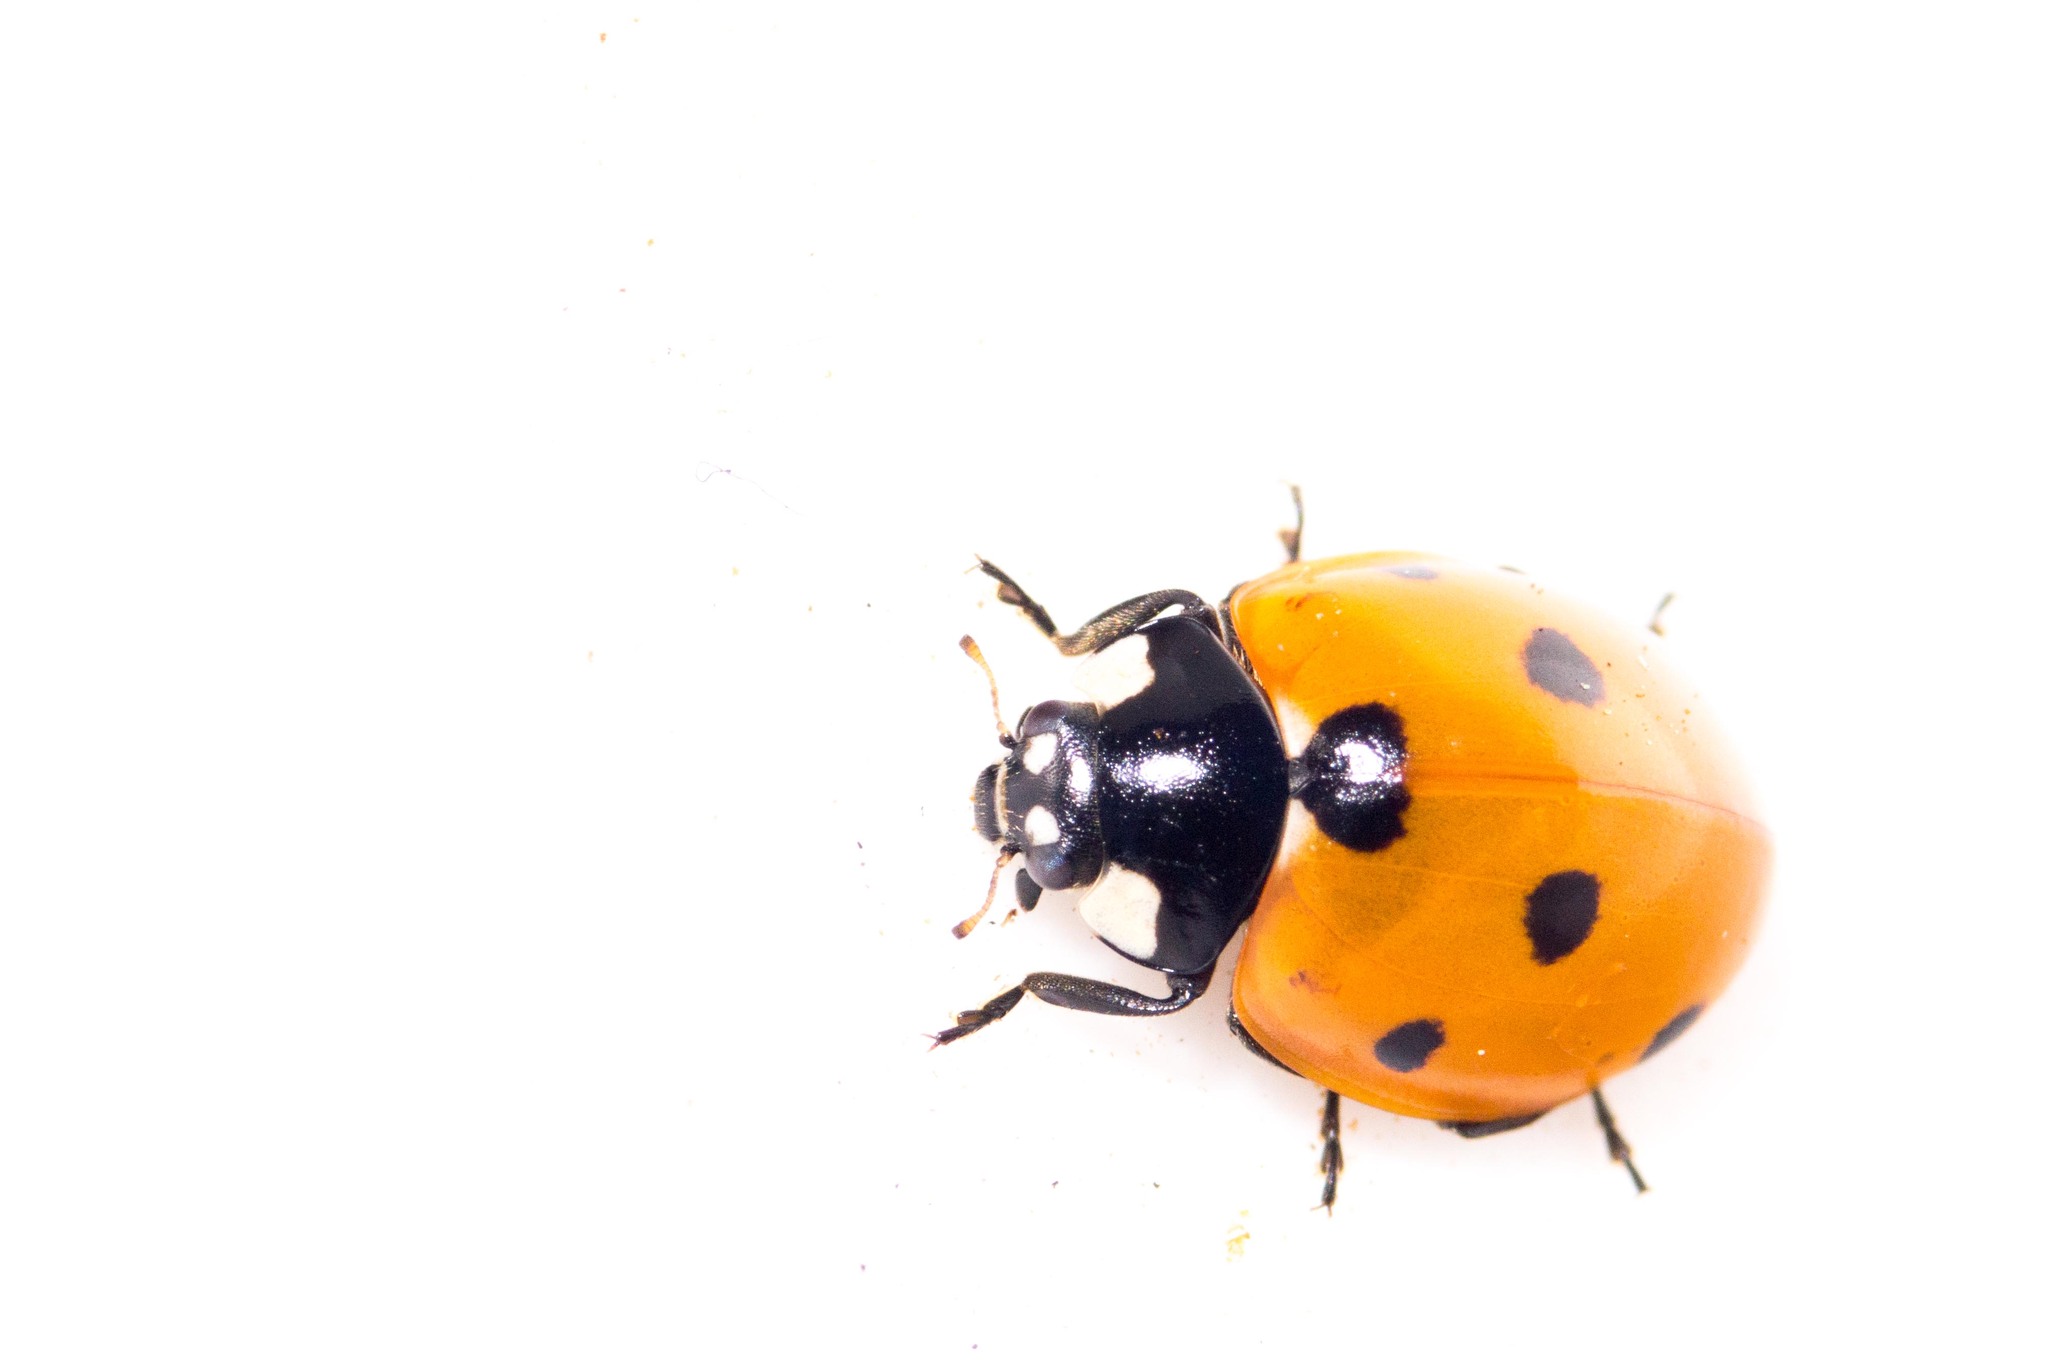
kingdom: Animalia
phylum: Arthropoda
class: Insecta
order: Coleoptera
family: Coccinellidae
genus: Coccinella
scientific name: Coccinella septempunctata
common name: Sevenspotted lady beetle
